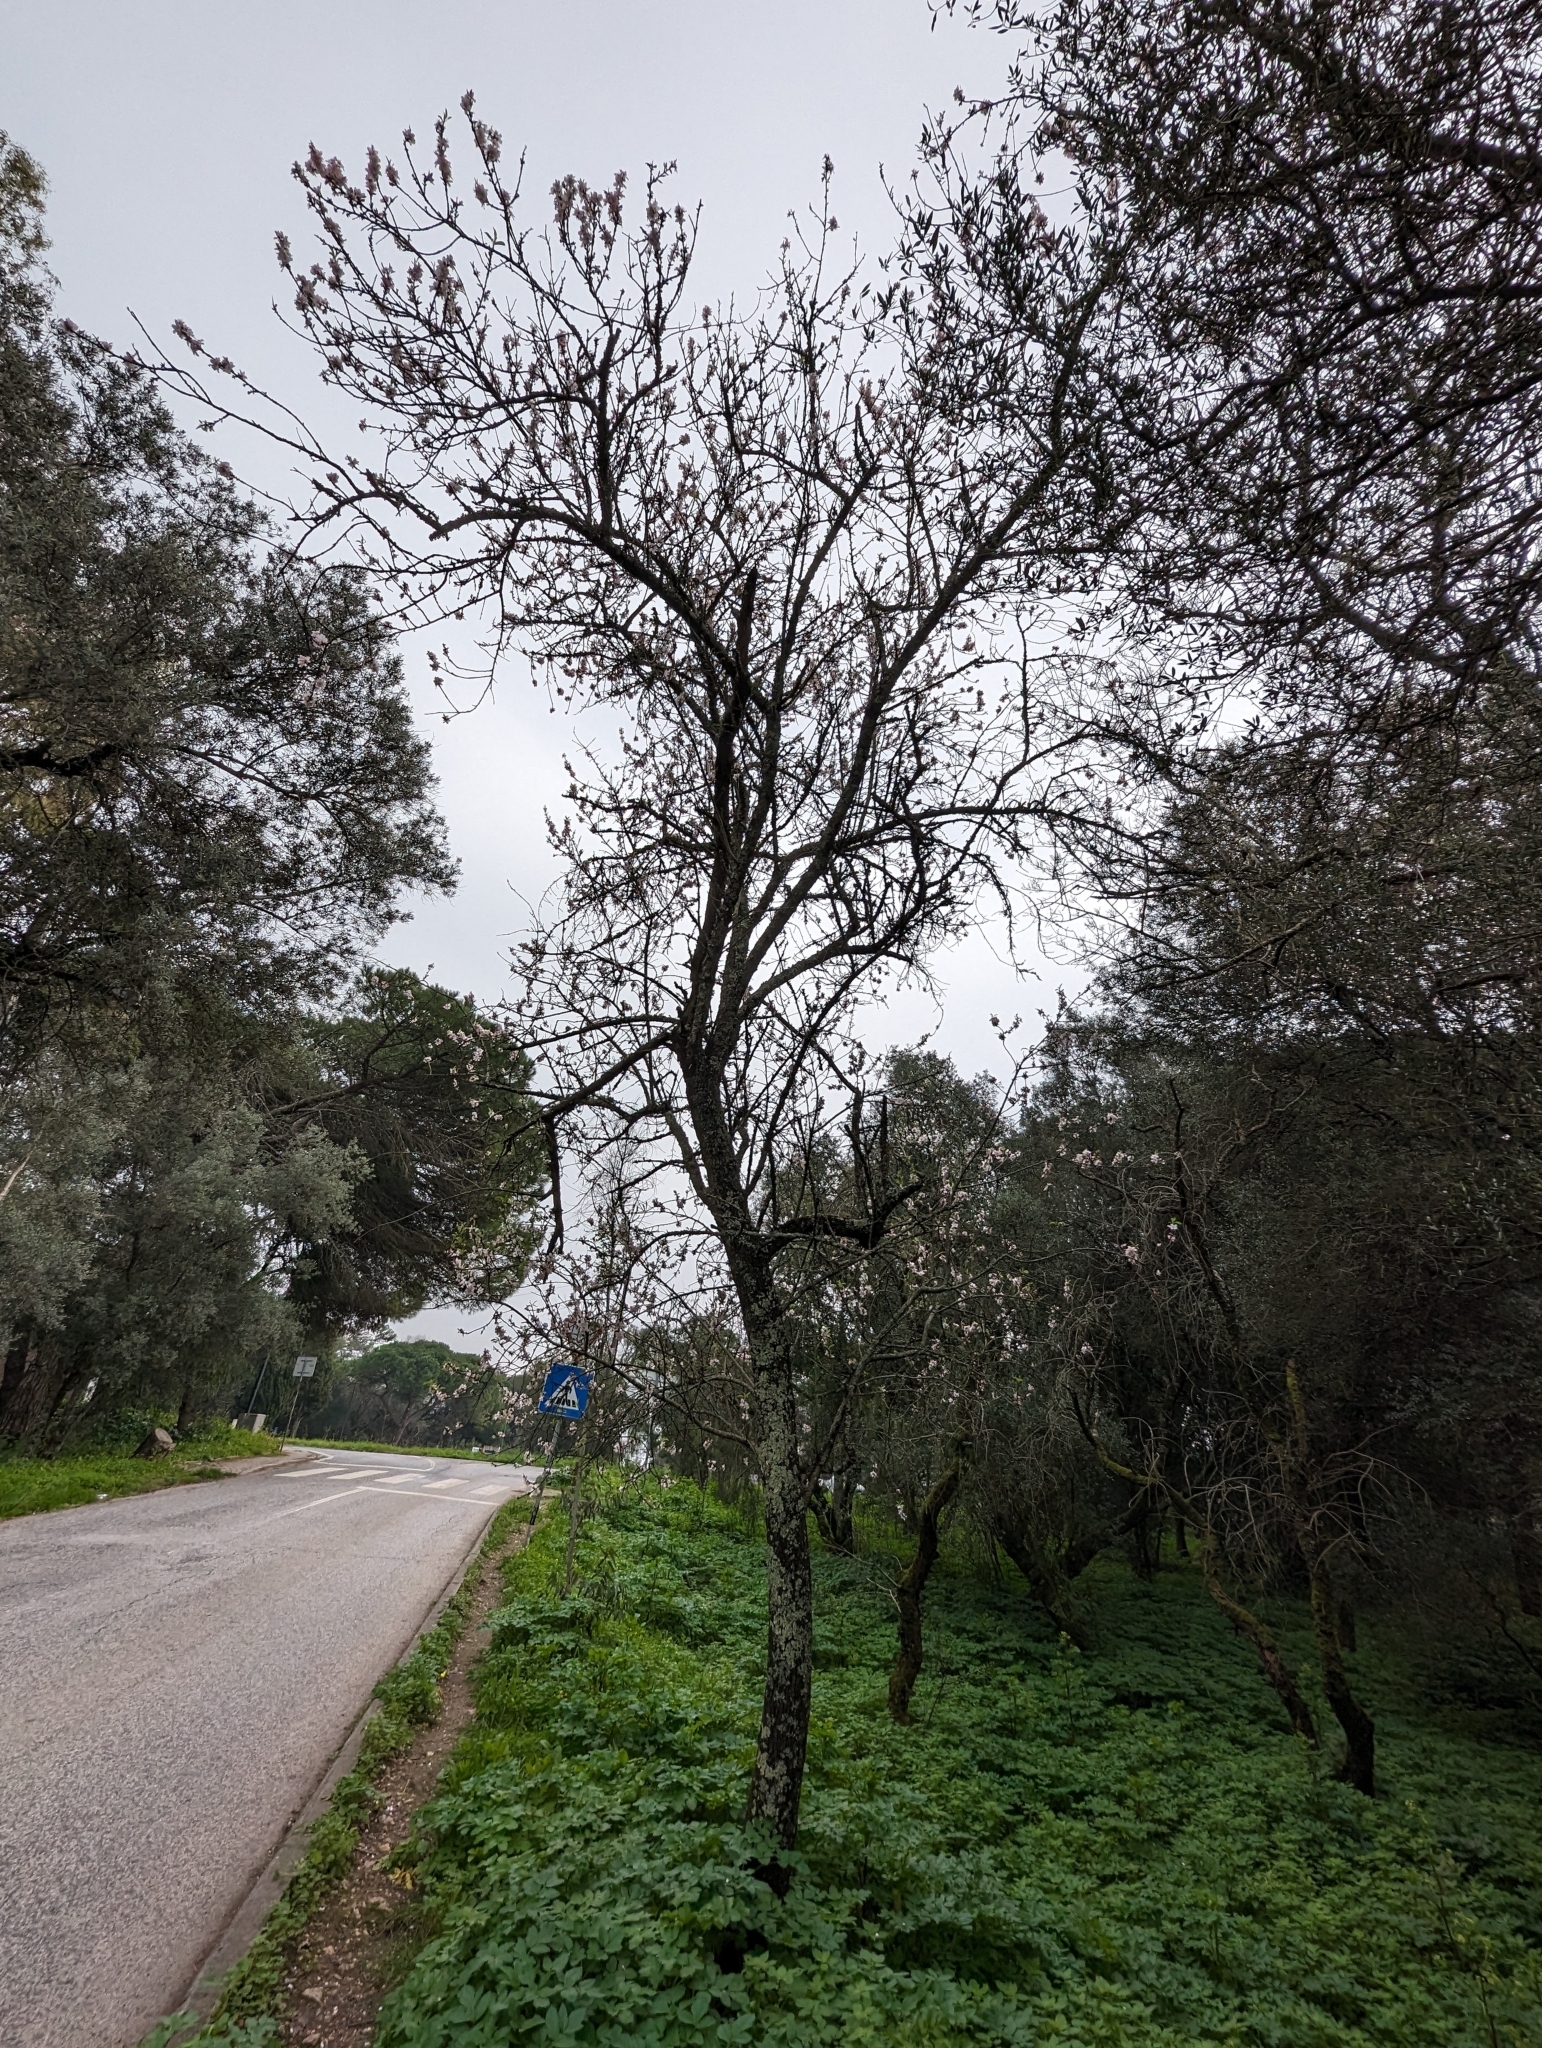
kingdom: Plantae
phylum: Tracheophyta
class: Magnoliopsida
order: Rosales
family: Rosaceae
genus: Prunus
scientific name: Prunus amygdalus
